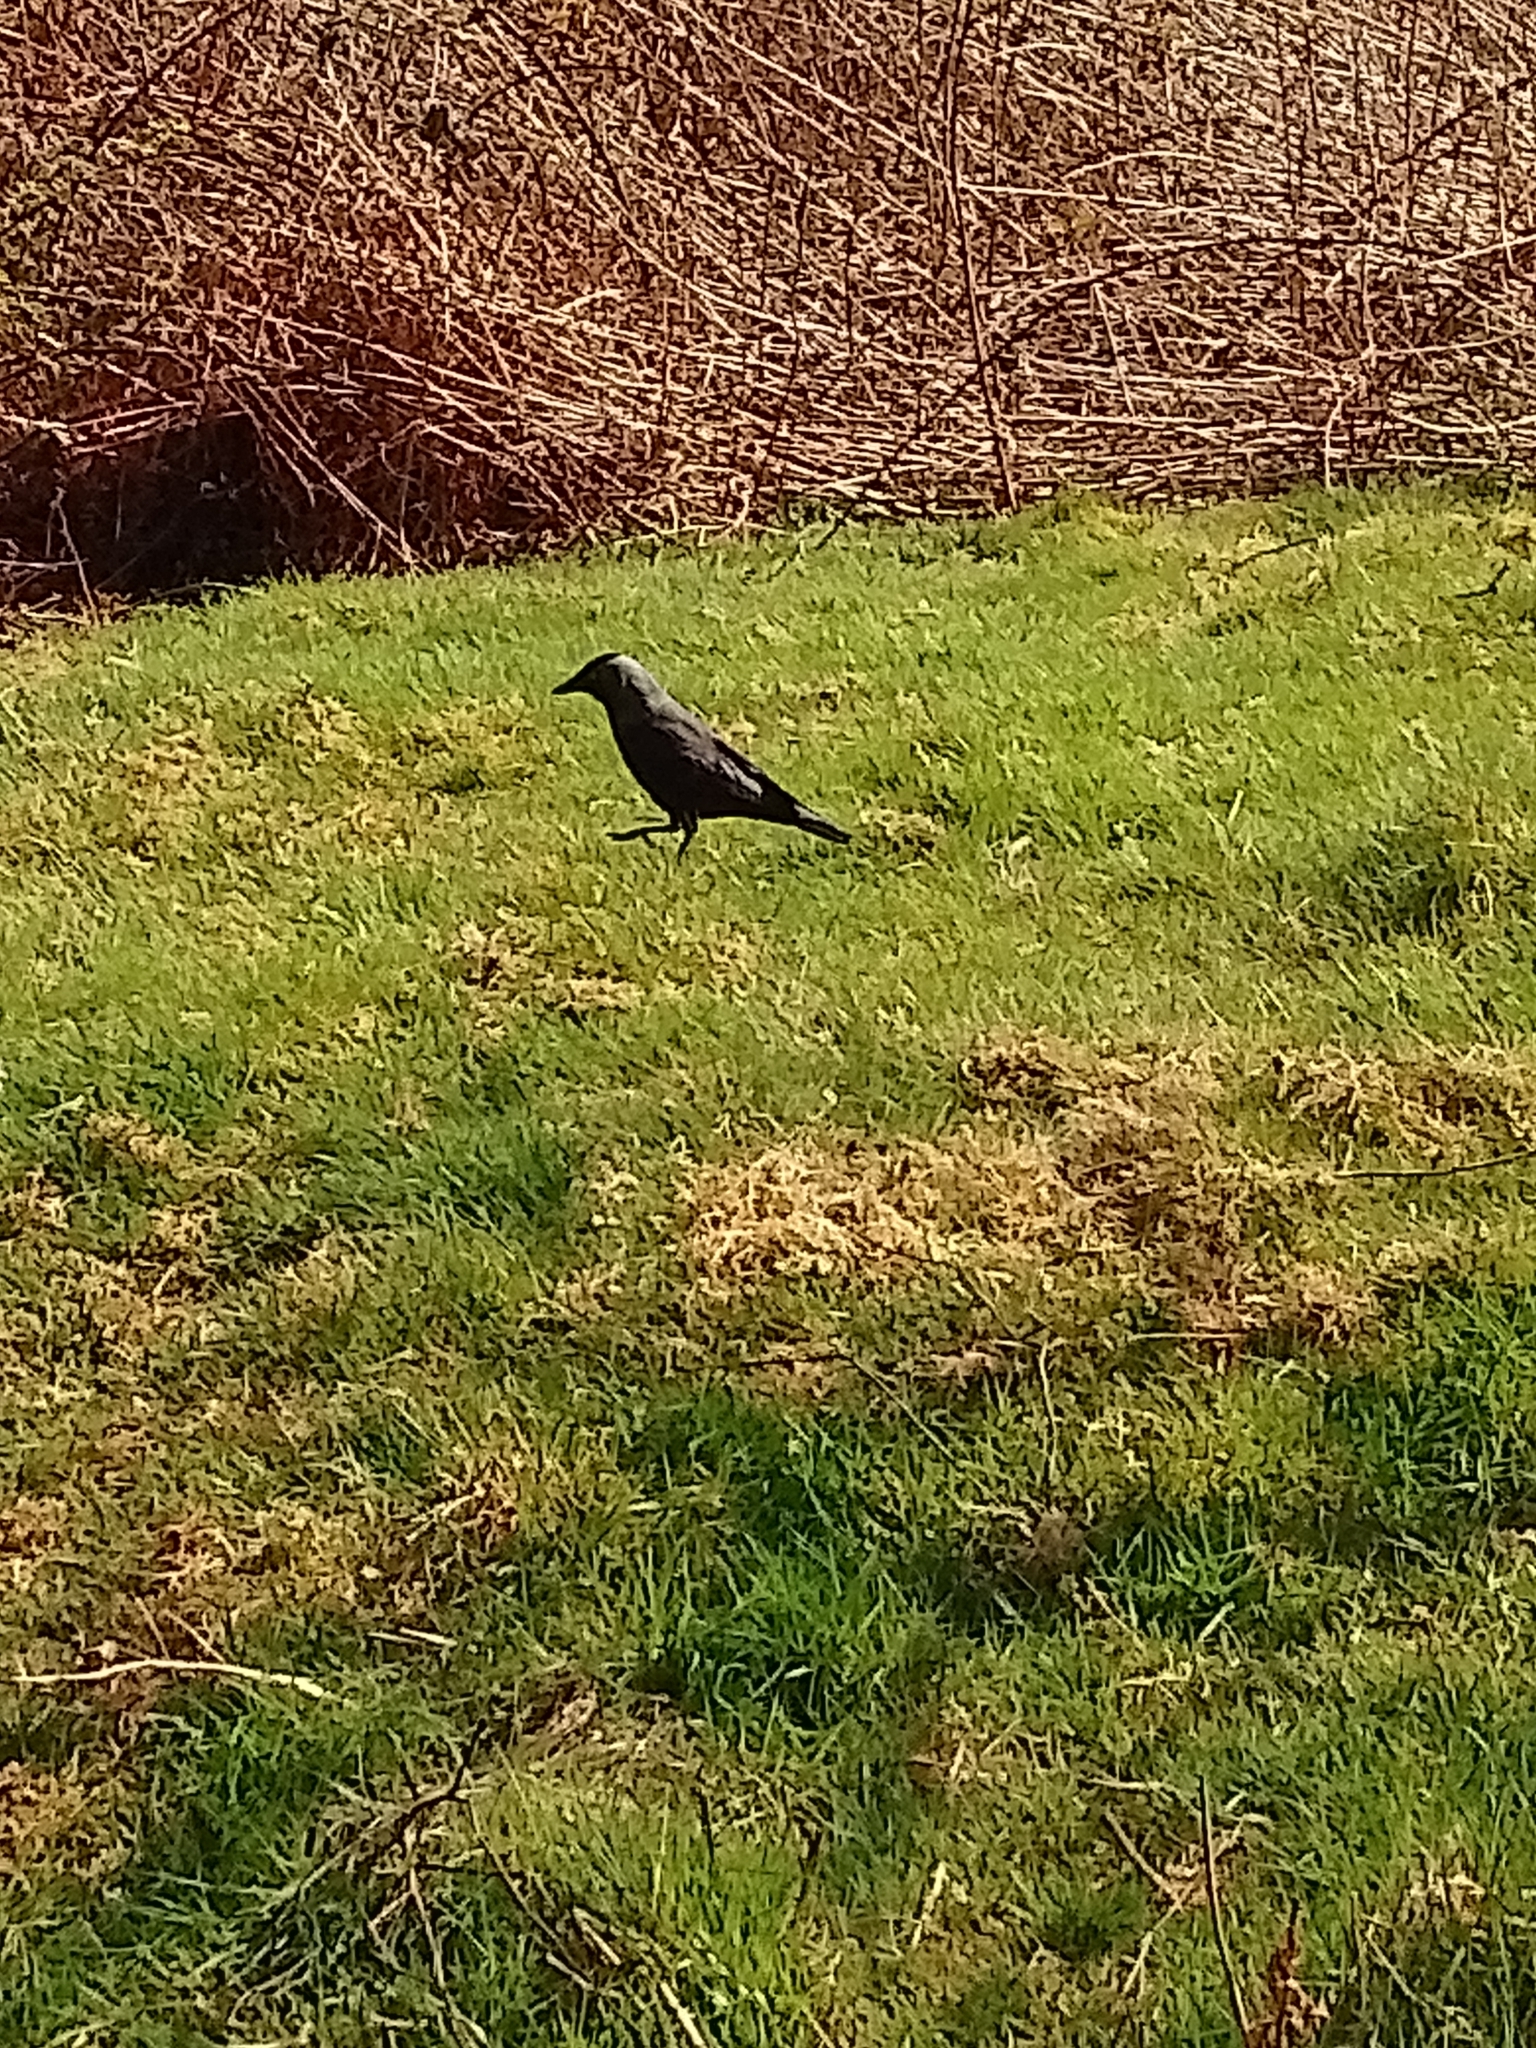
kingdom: Animalia
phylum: Chordata
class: Aves
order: Passeriformes
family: Corvidae
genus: Coloeus
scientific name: Coloeus monedula
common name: Western jackdaw
